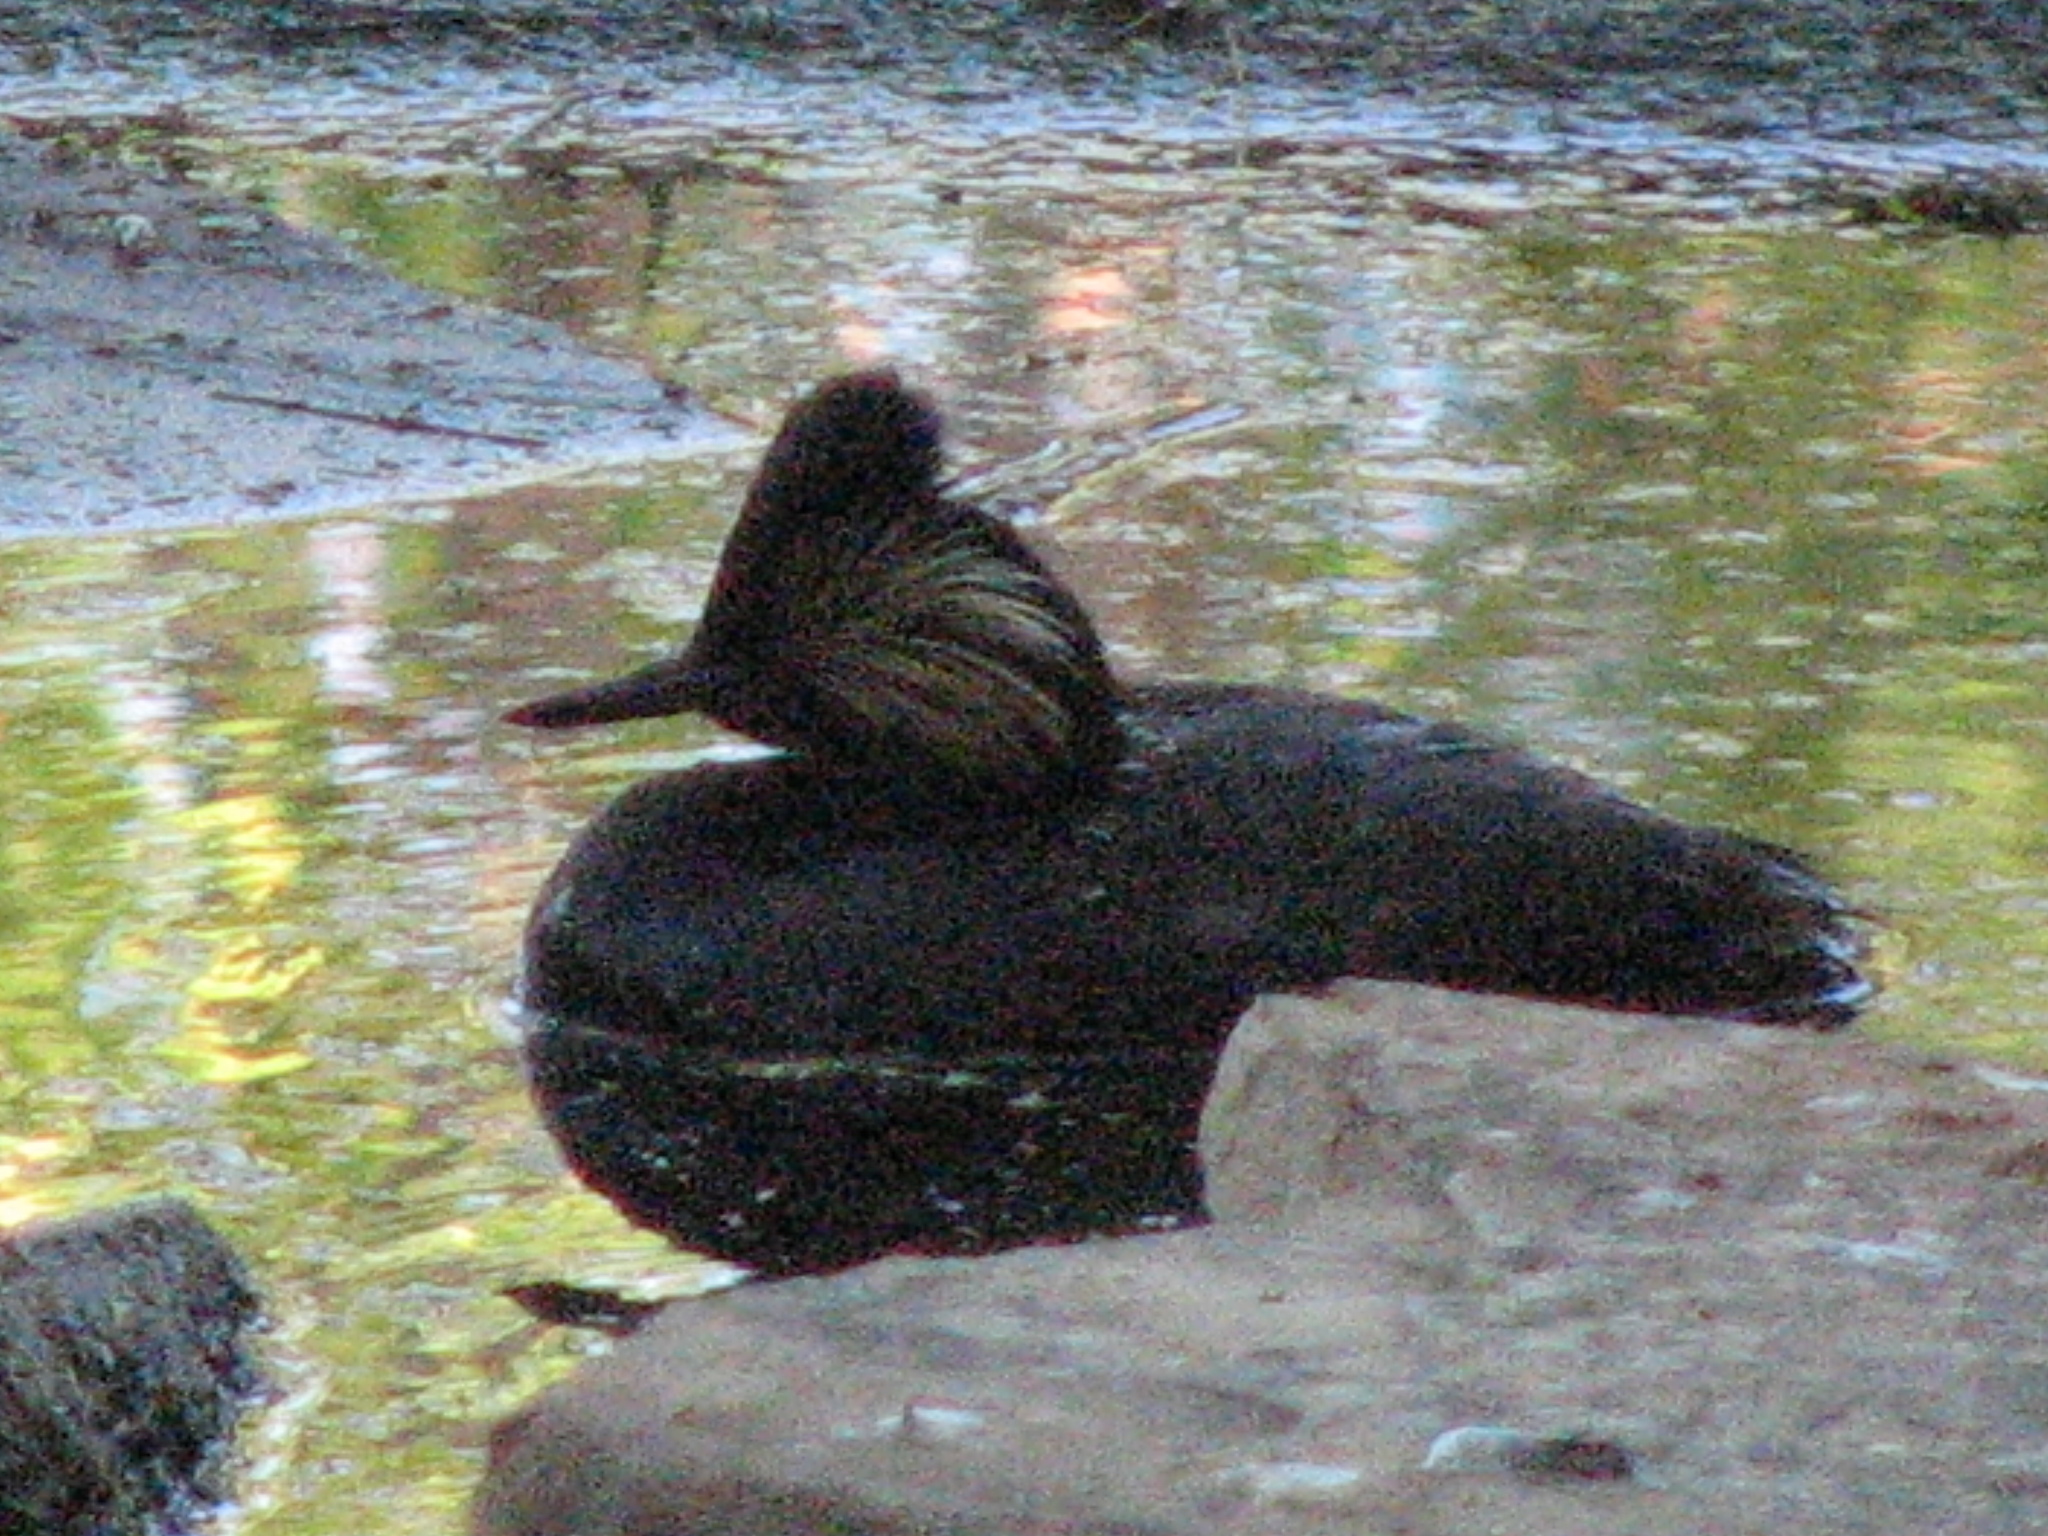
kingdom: Animalia
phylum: Chordata
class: Aves
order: Podicipediformes
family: Podicipedidae
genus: Podiceps
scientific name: Podiceps nigricollis
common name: Black-necked grebe
